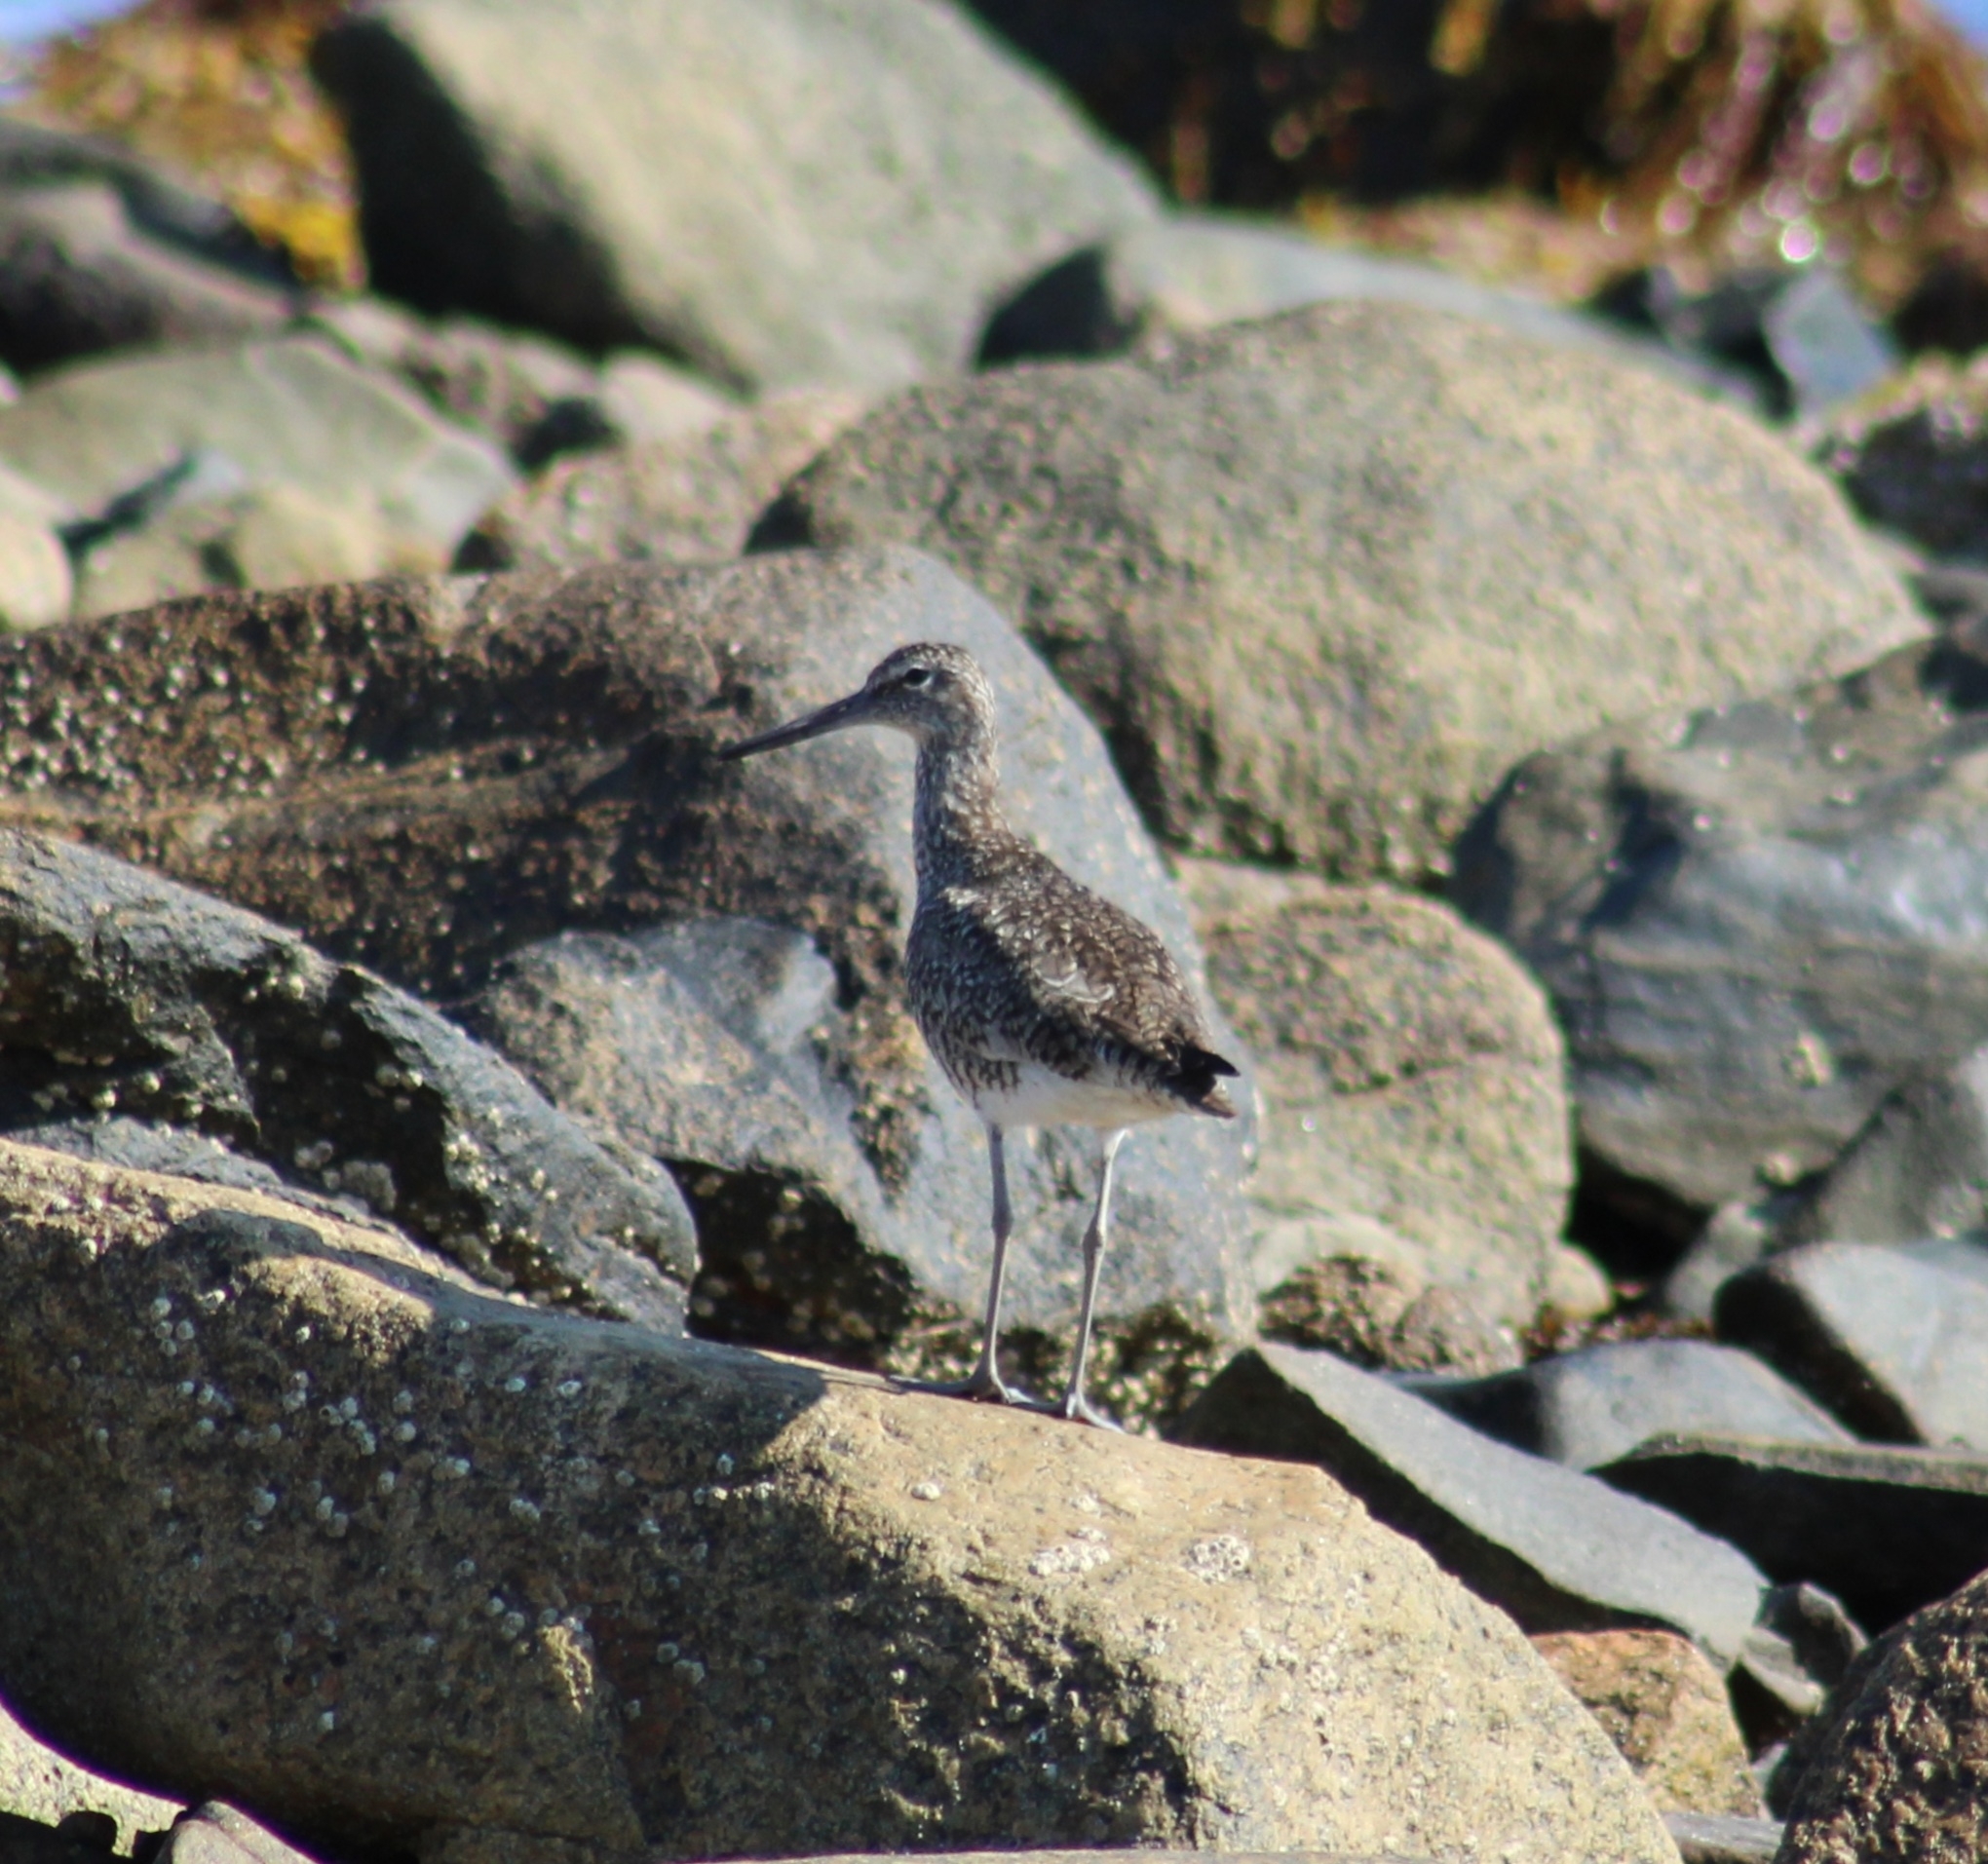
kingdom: Animalia
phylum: Chordata
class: Aves
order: Charadriiformes
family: Scolopacidae
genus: Tringa
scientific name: Tringa semipalmata
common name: Willet
